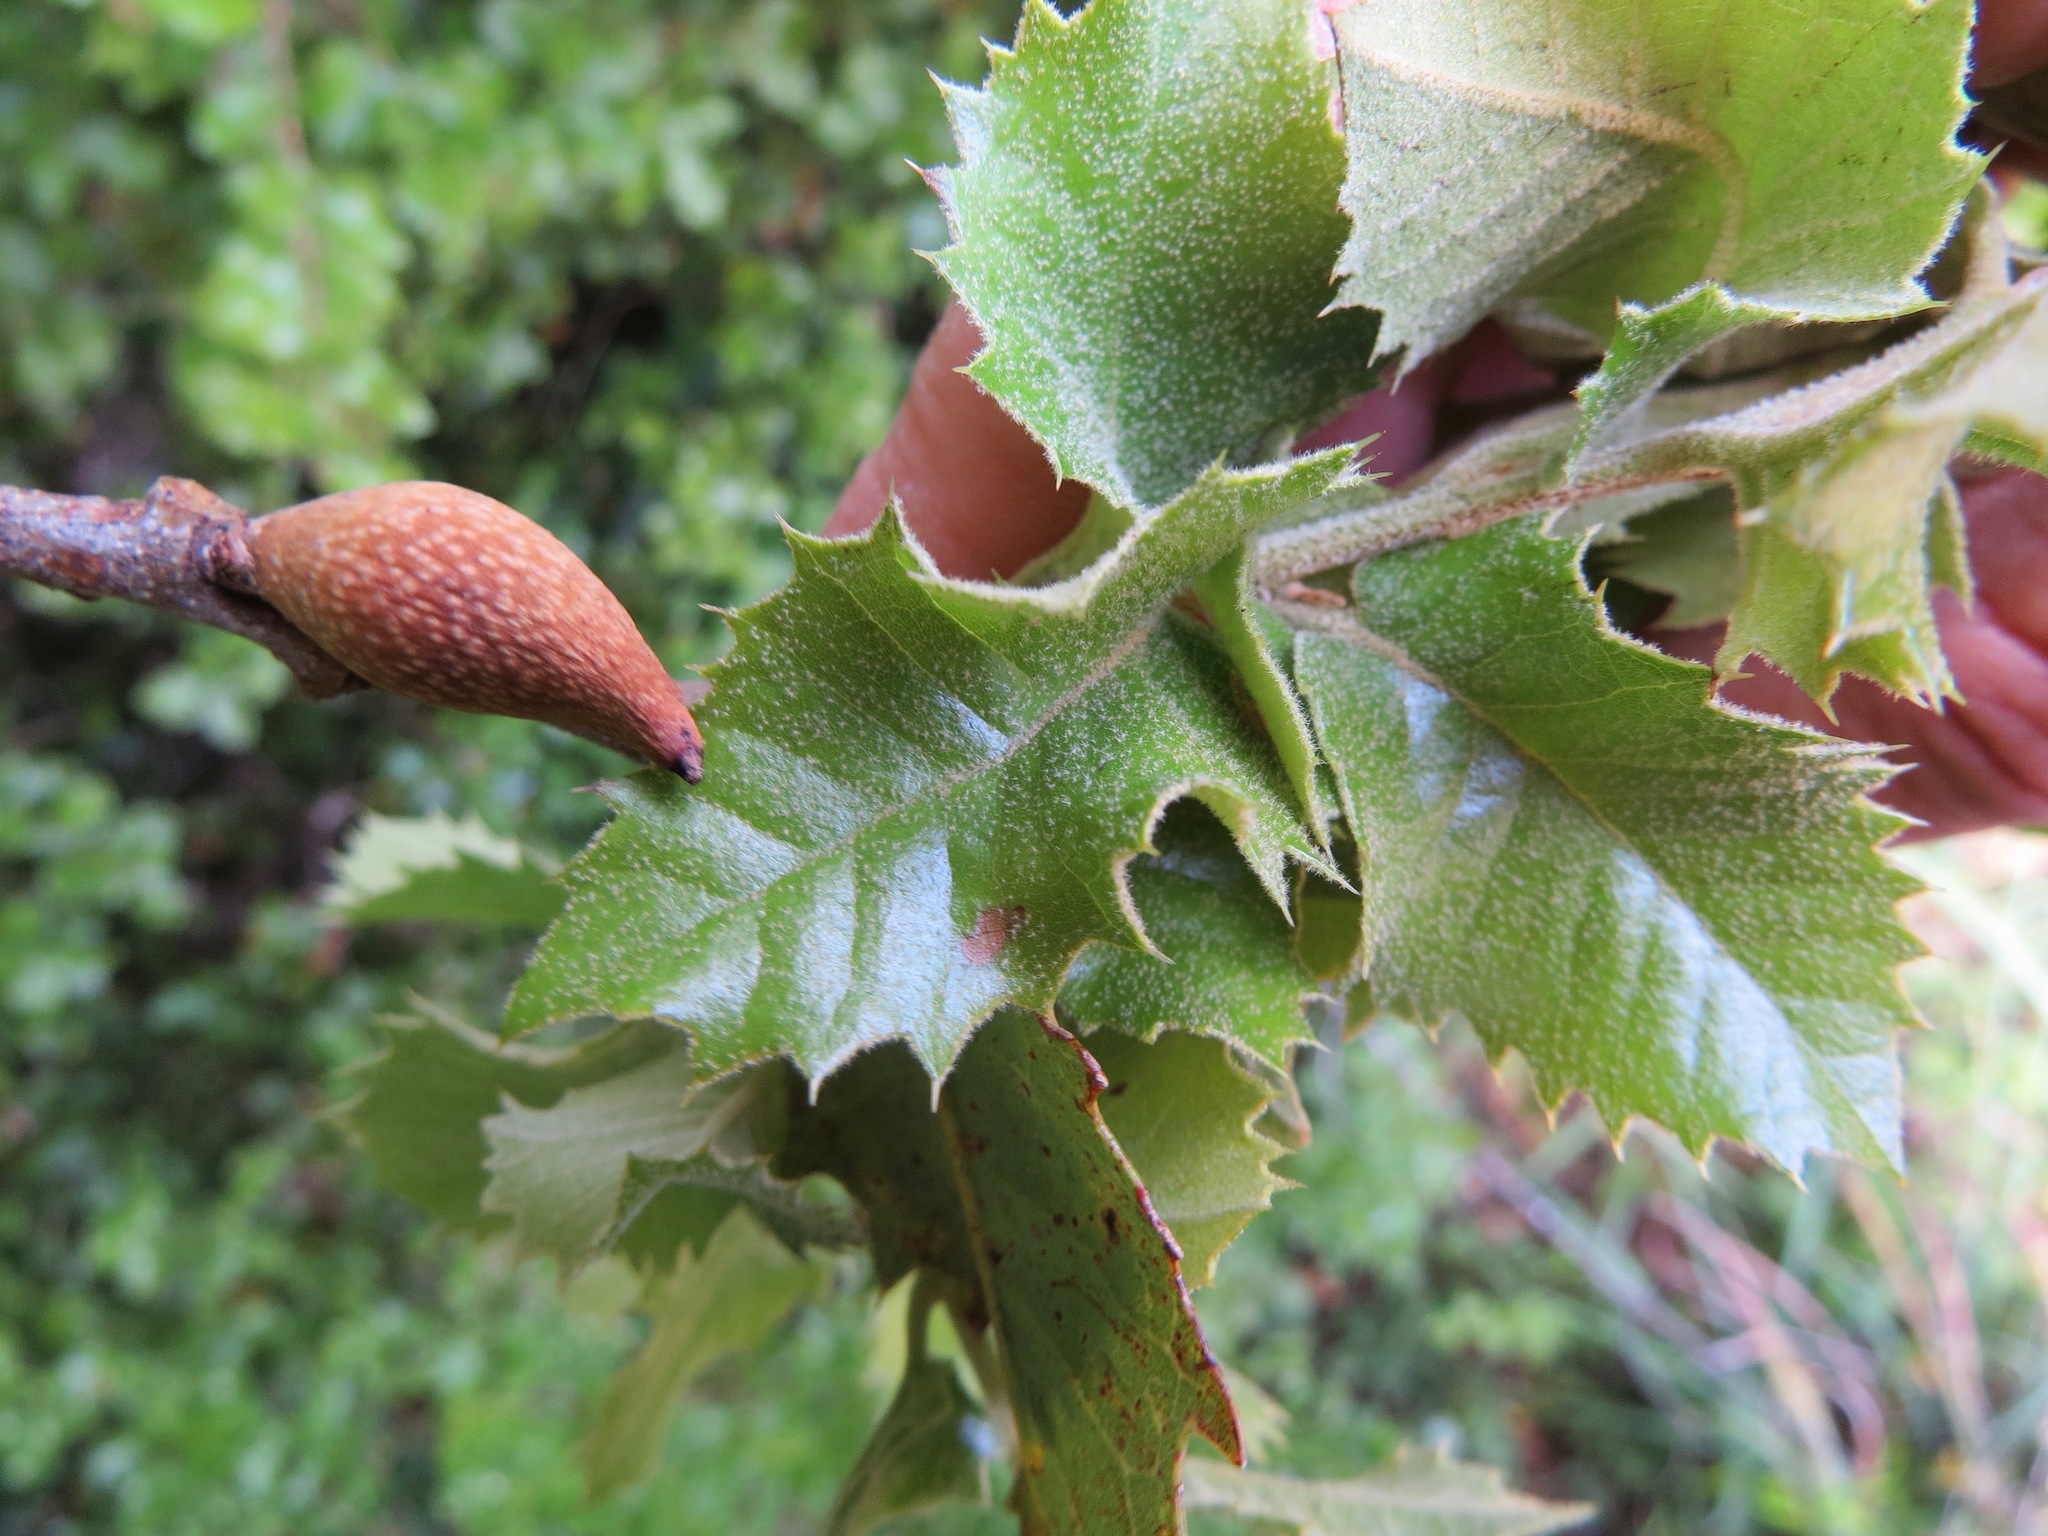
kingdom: Animalia
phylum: Arthropoda
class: Insecta
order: Hymenoptera
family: Cynipidae
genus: Heteroecus
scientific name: Heteroecus pacificus
